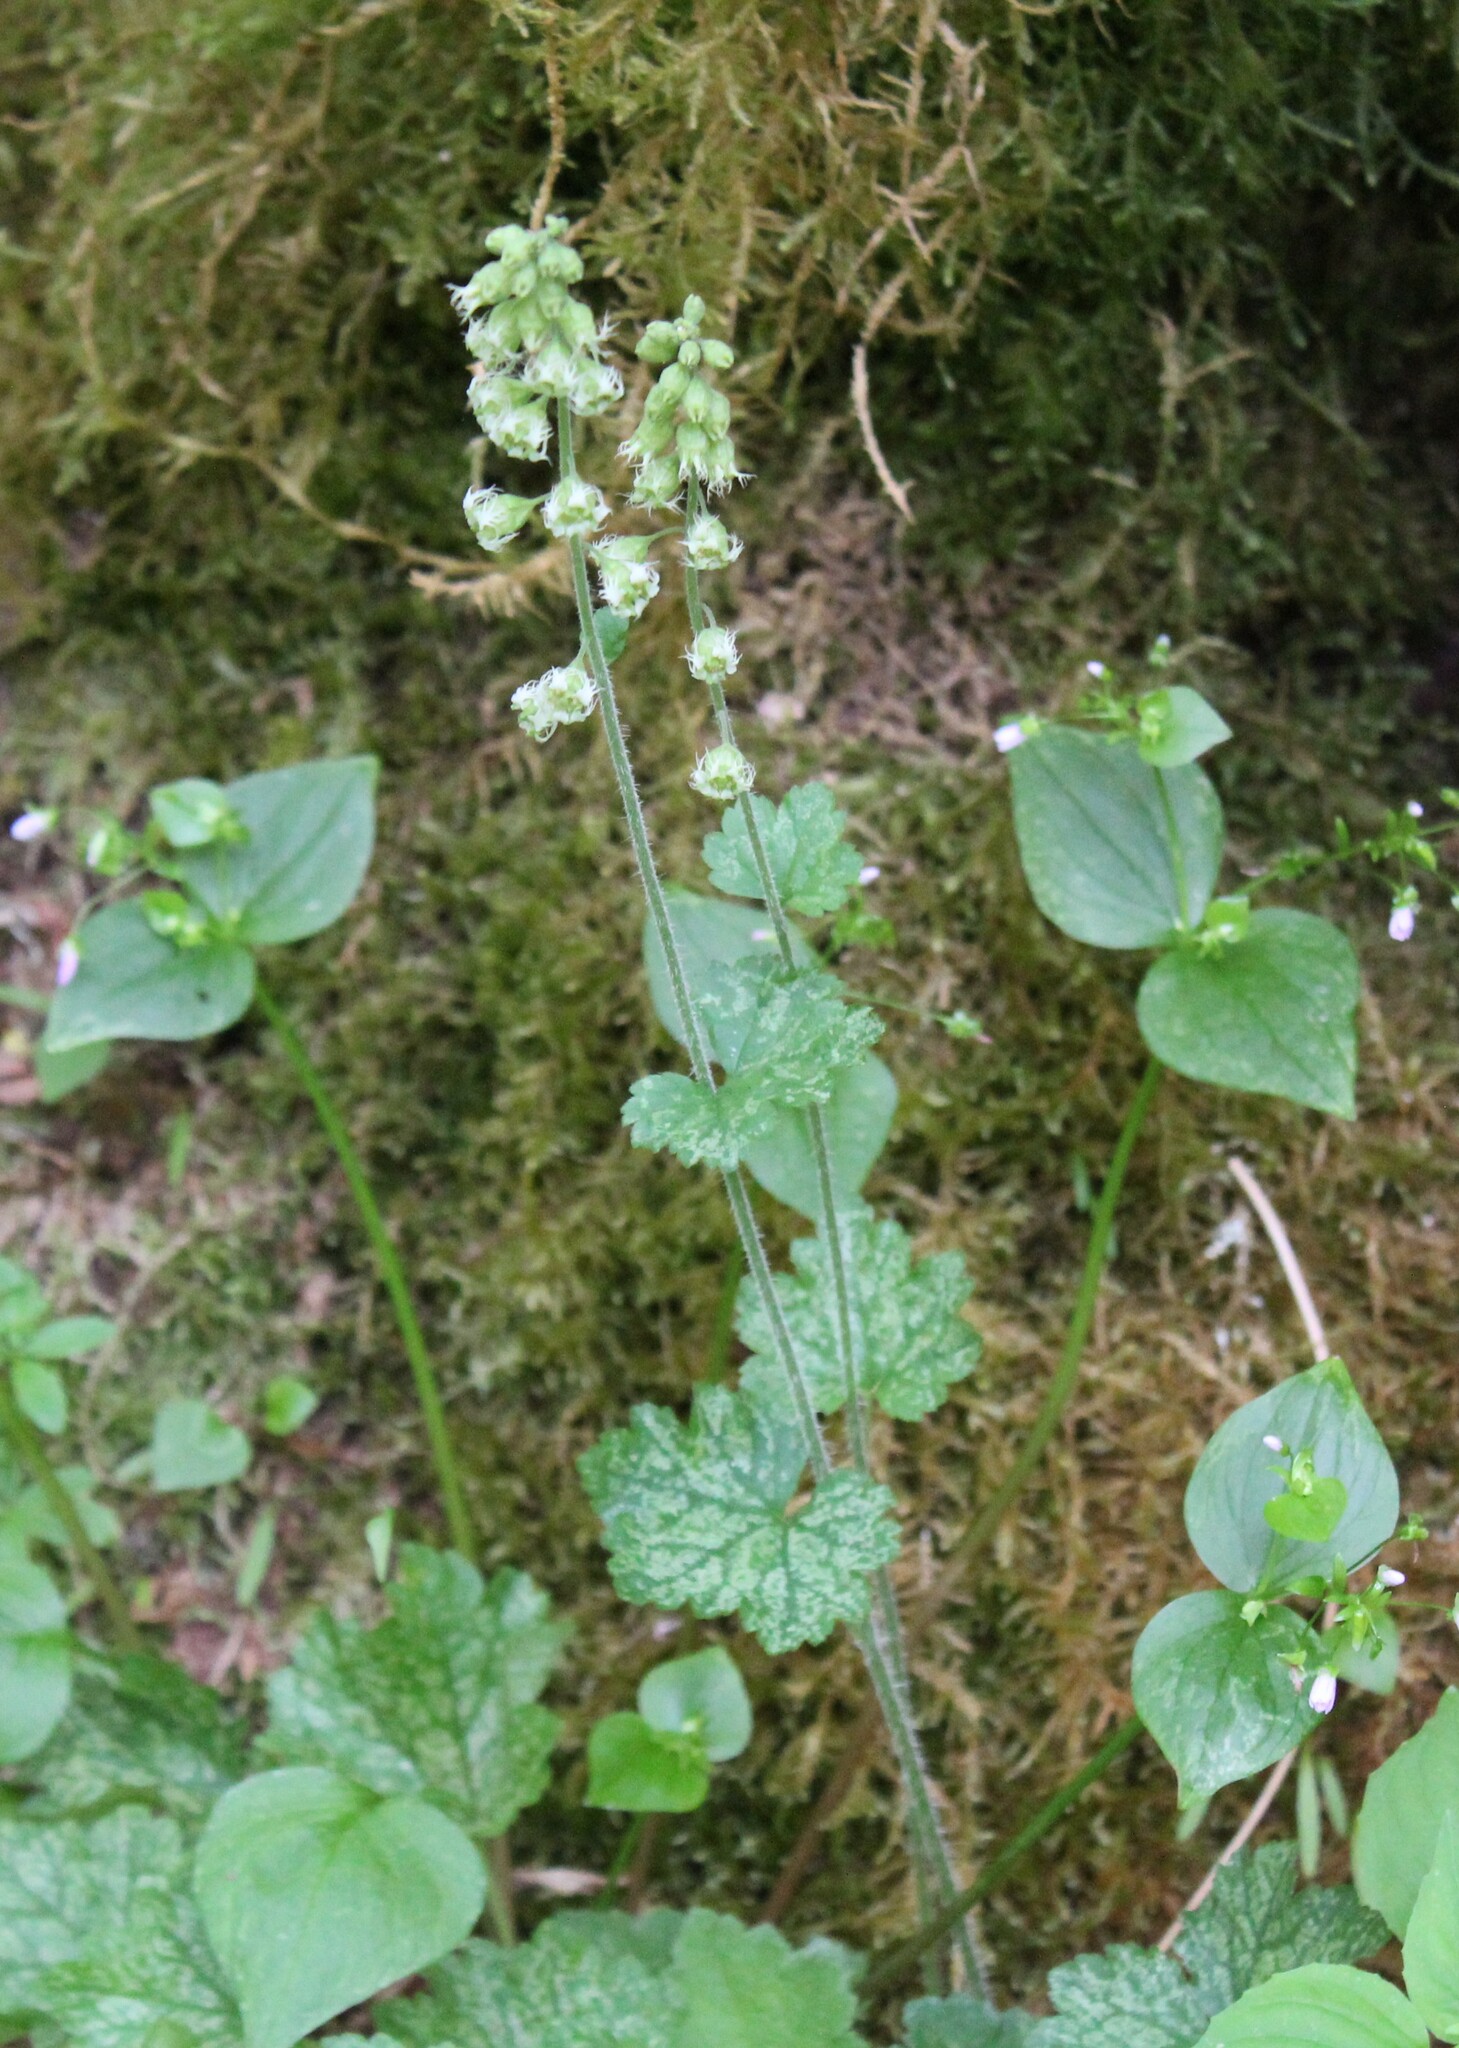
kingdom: Plantae
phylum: Tracheophyta
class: Magnoliopsida
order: Saxifragales
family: Saxifragaceae
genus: Tellima
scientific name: Tellima grandiflora
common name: Fringecups
